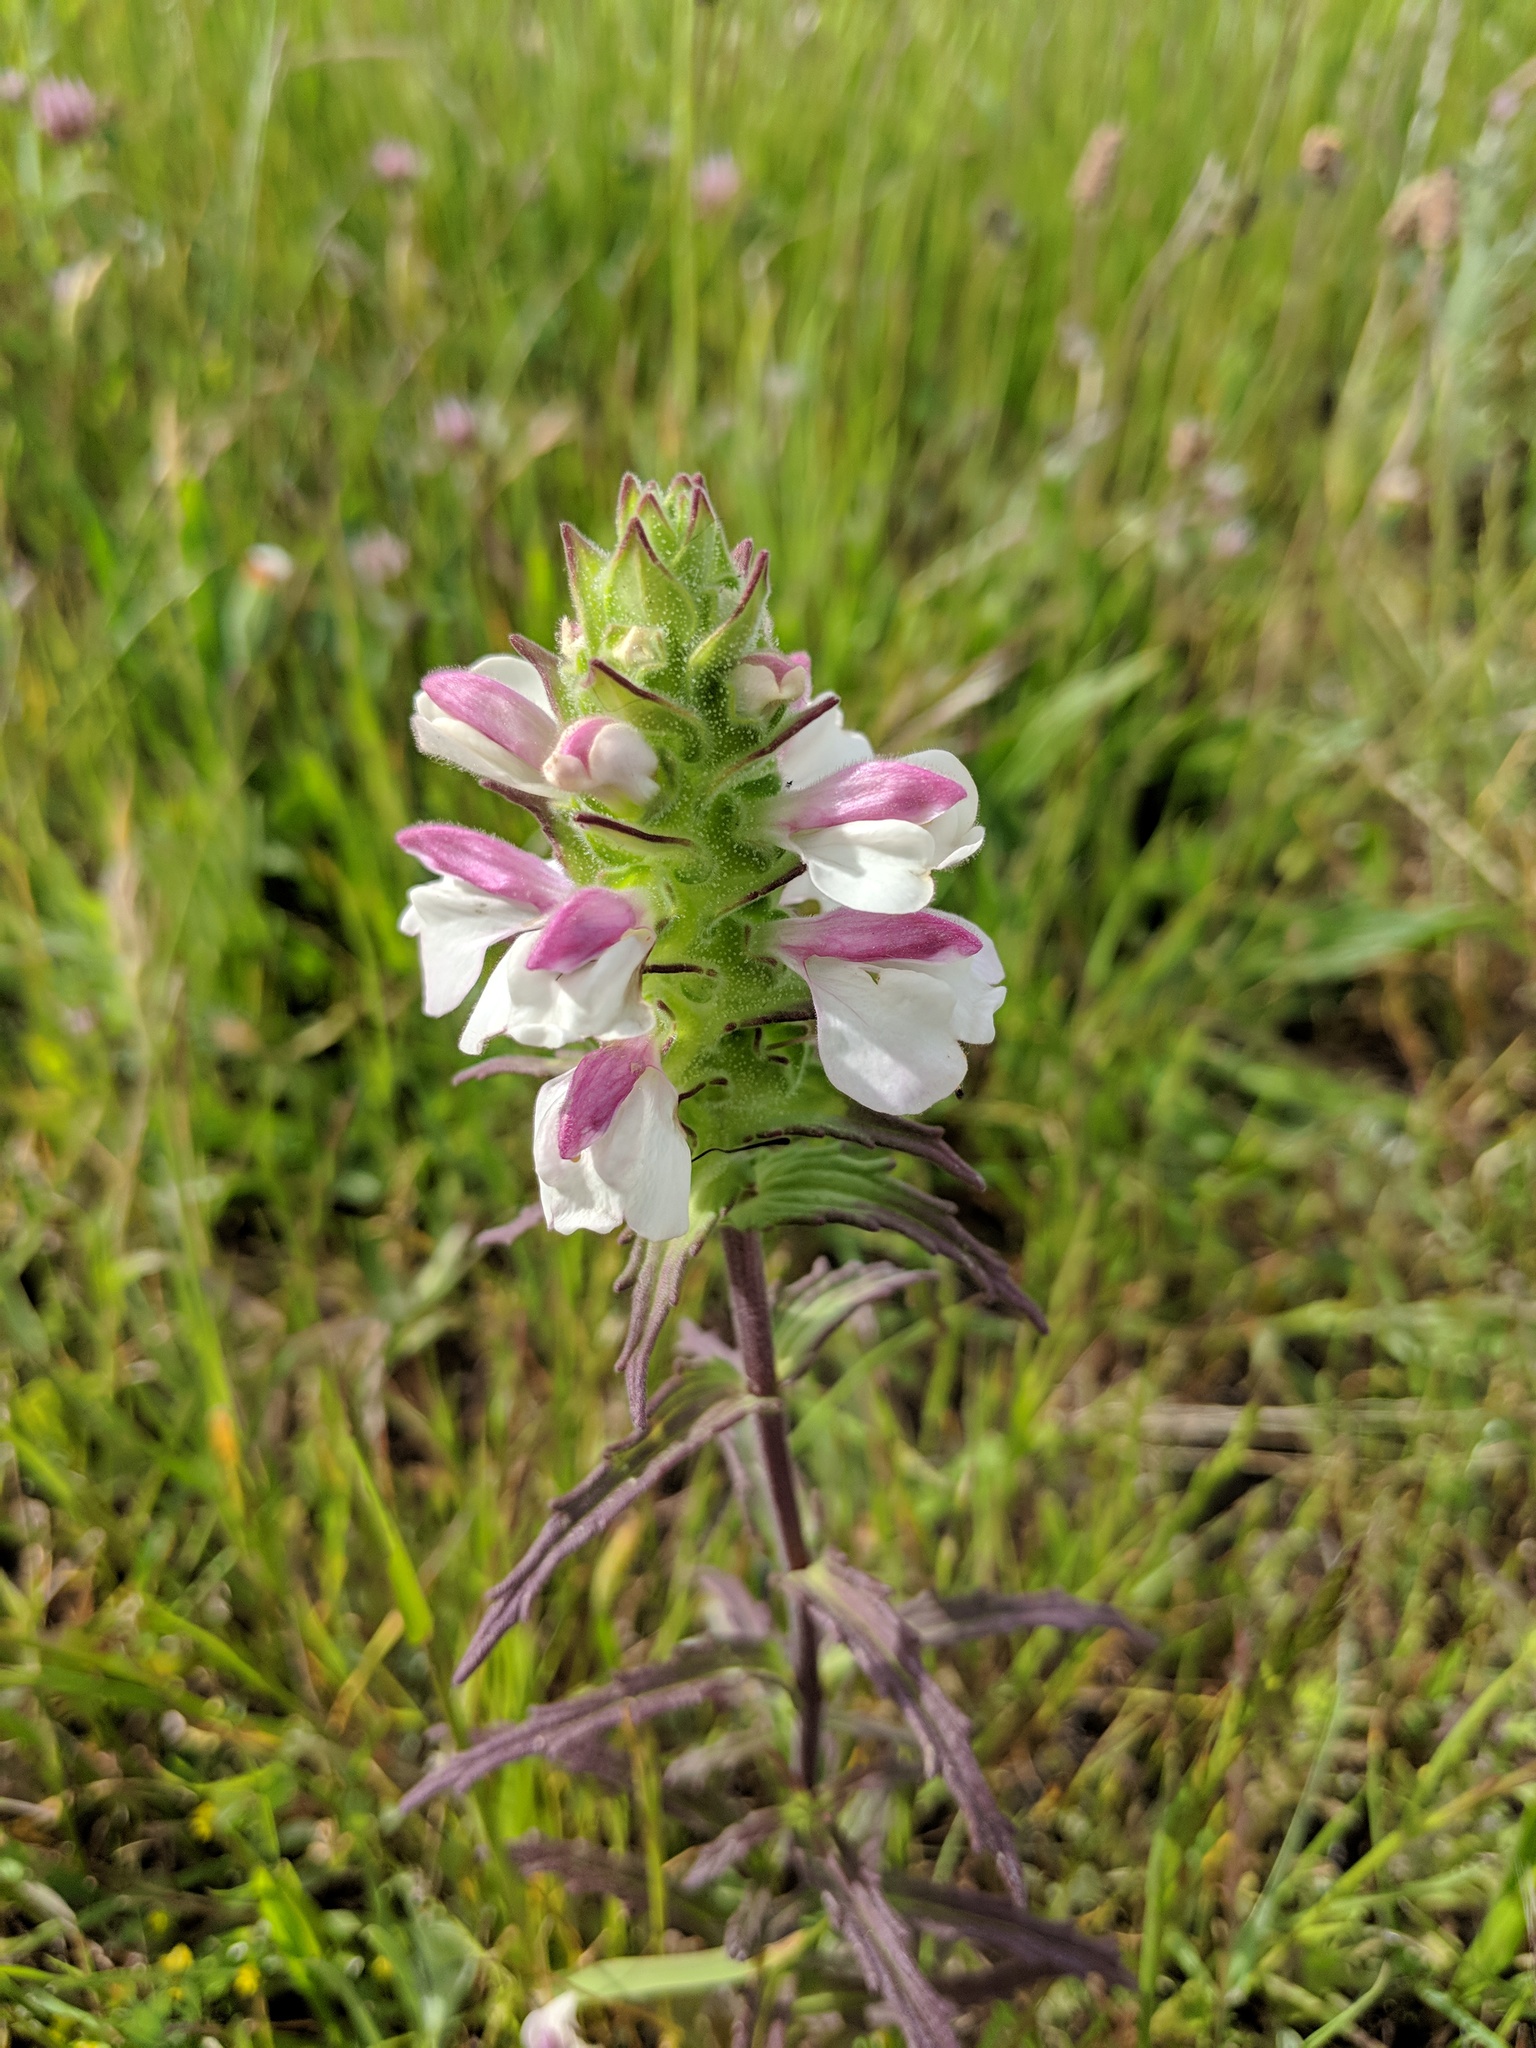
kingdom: Plantae
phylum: Tracheophyta
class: Magnoliopsida
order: Lamiales
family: Orobanchaceae
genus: Bellardia
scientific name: Bellardia trixago
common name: Mediterranean lineseed
